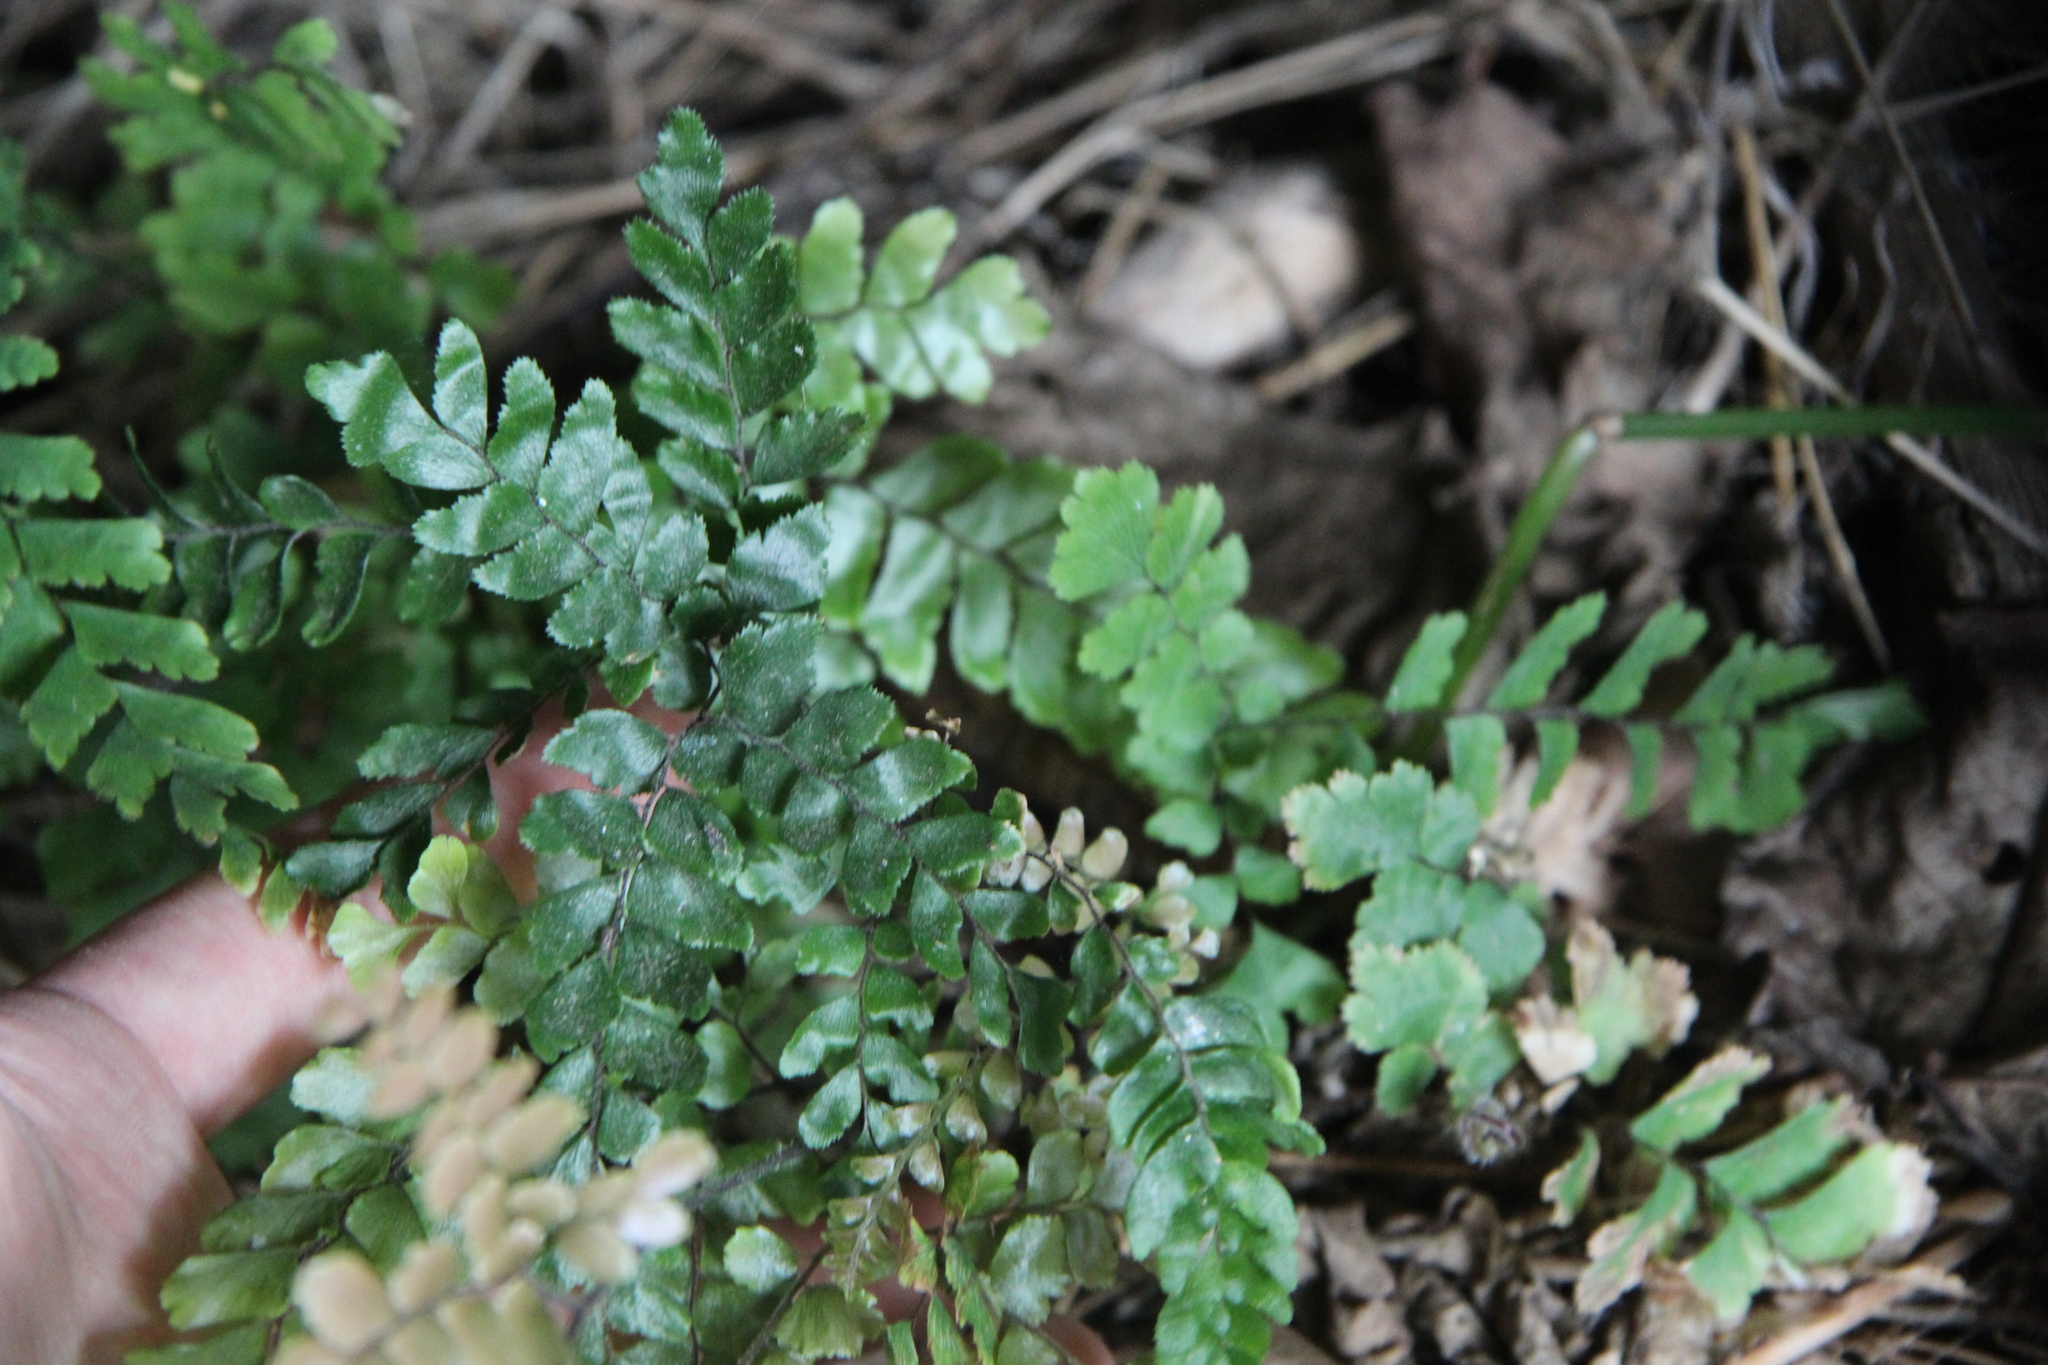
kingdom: Plantae
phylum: Tracheophyta
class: Polypodiopsida
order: Polypodiales
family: Pteridaceae
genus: Adiantum
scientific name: Adiantum hispidulum
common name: Rough maidenhair
